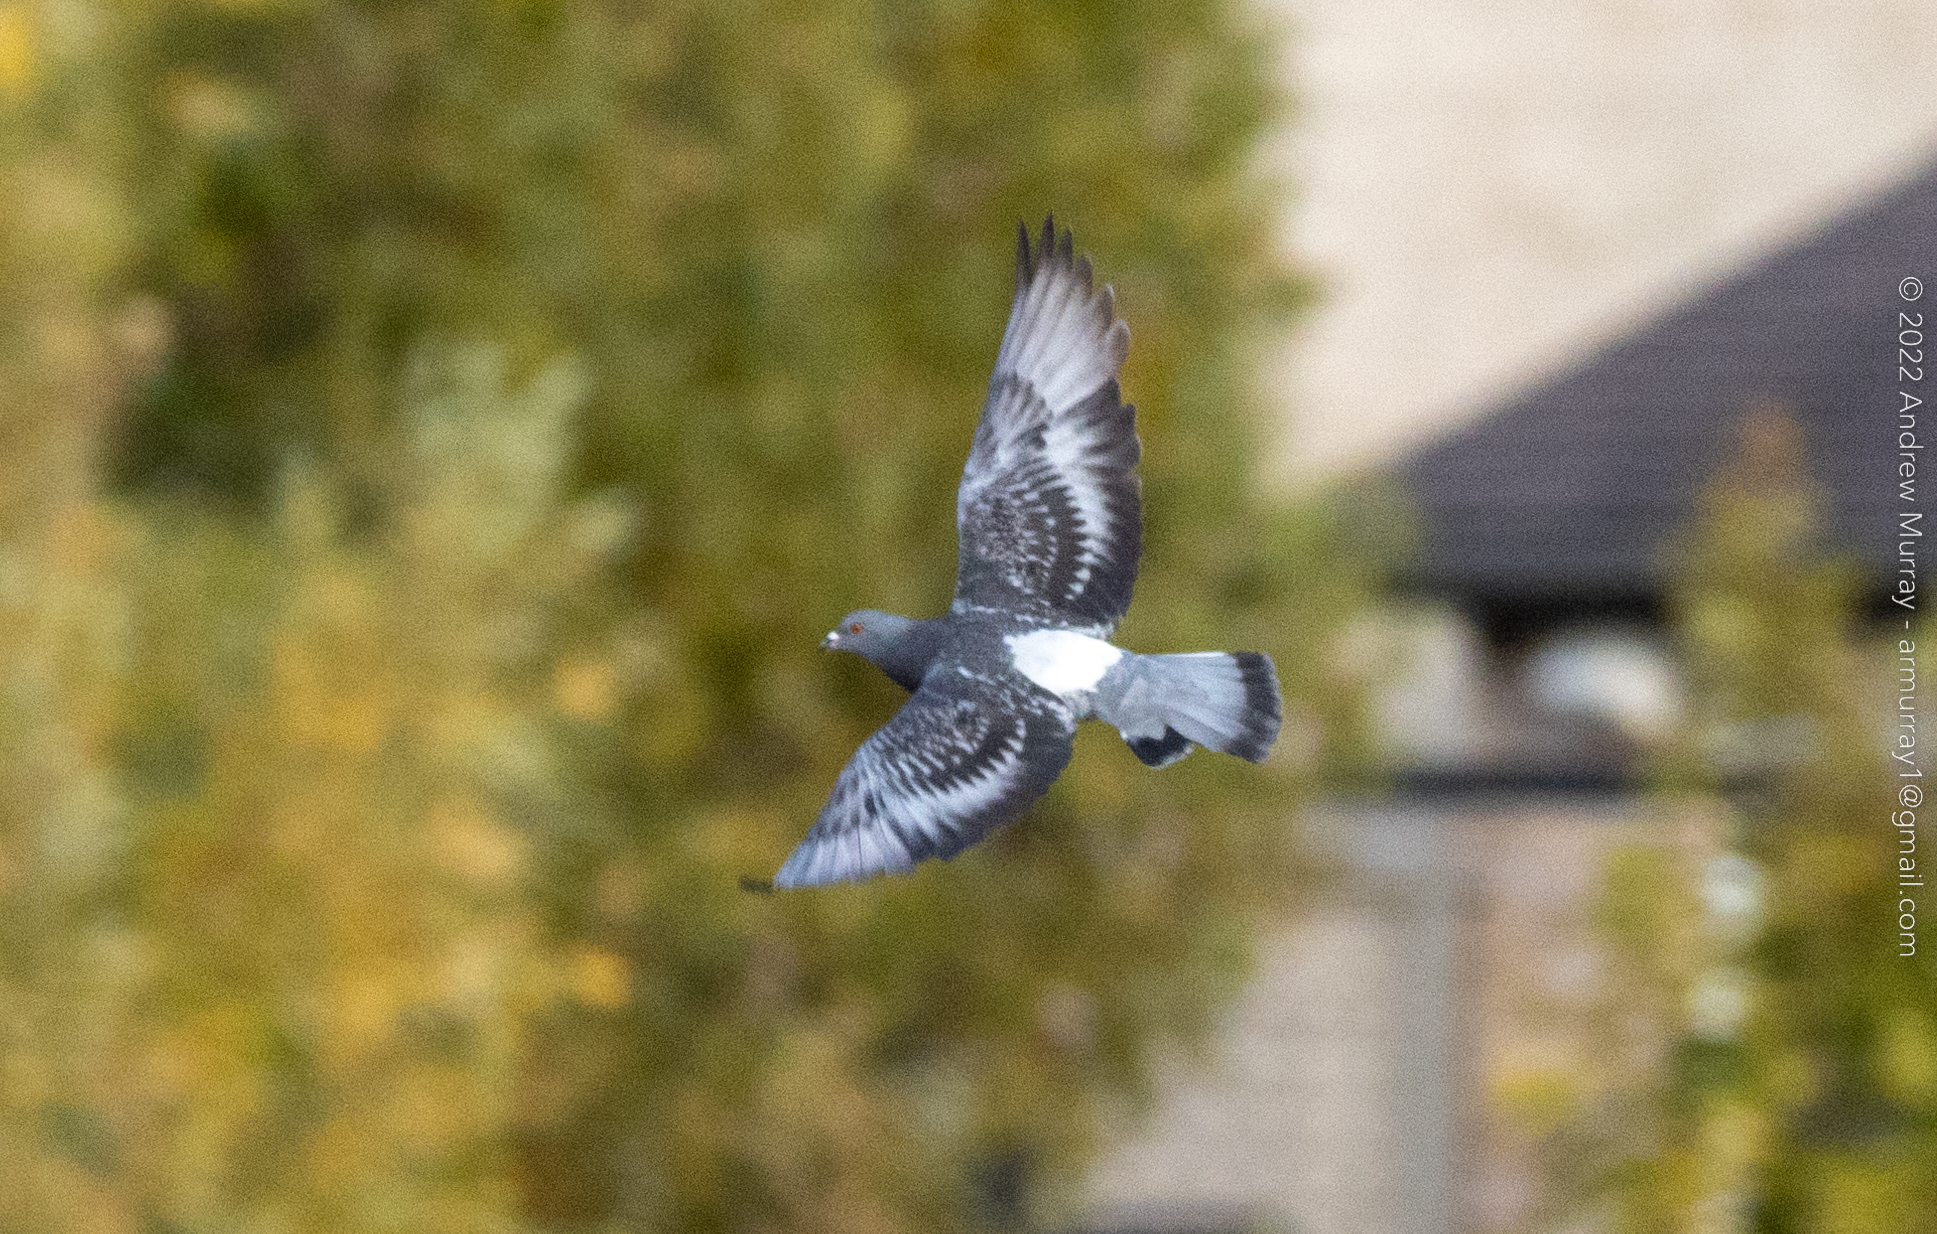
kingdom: Animalia
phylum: Chordata
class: Aves
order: Columbiformes
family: Columbidae
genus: Columba
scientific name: Columba livia
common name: Rock pigeon
